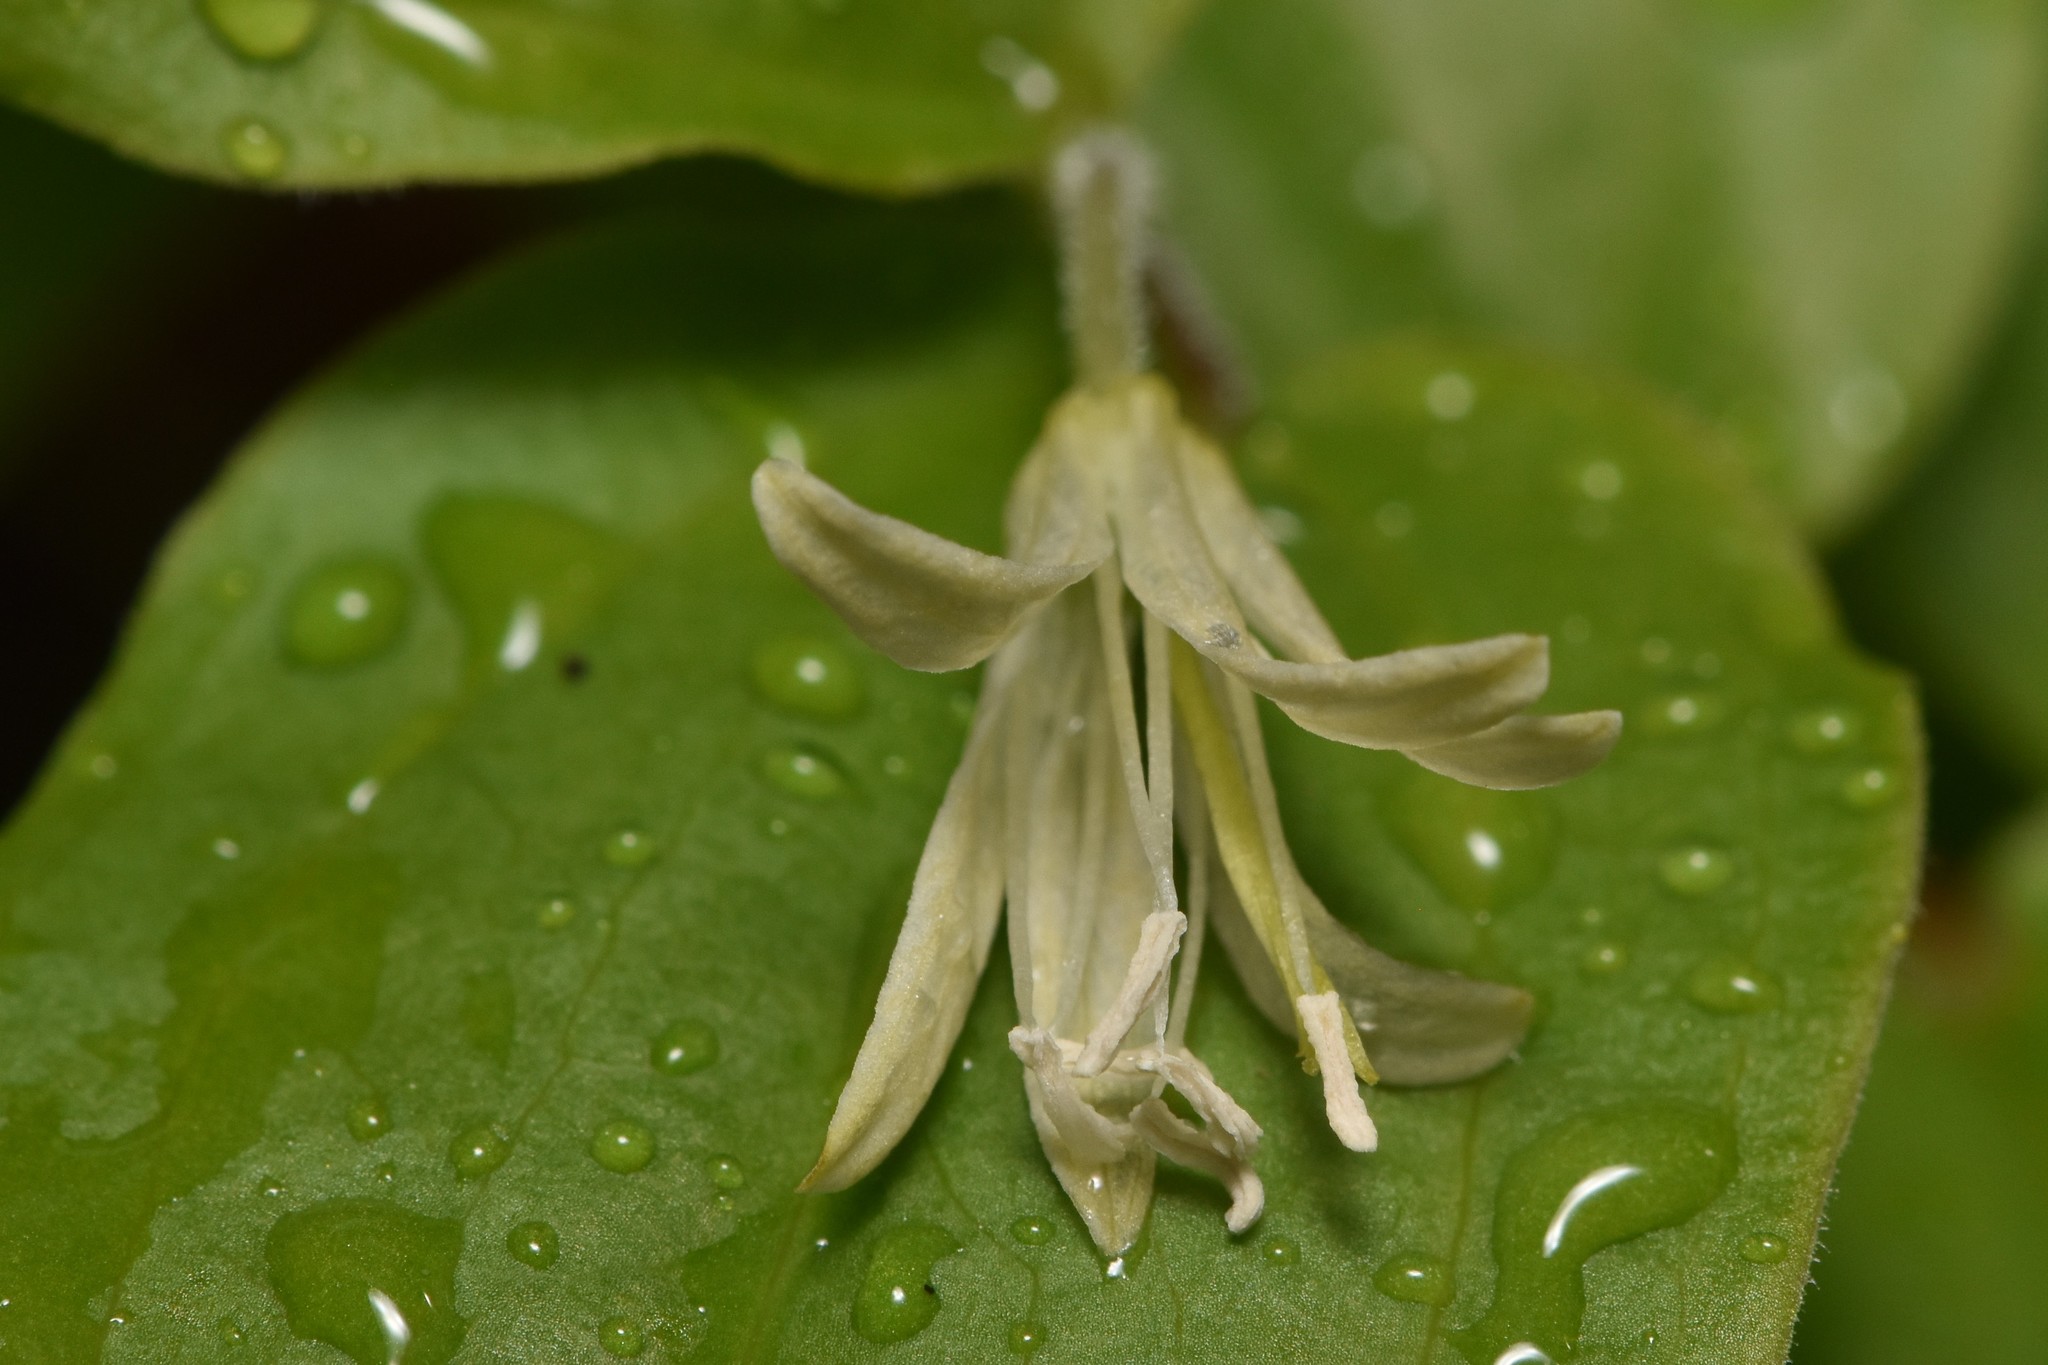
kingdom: Plantae
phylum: Tracheophyta
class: Liliopsida
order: Liliales
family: Liliaceae
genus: Prosartes
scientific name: Prosartes trachycarpa
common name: Rough-fruit fairy-bells
